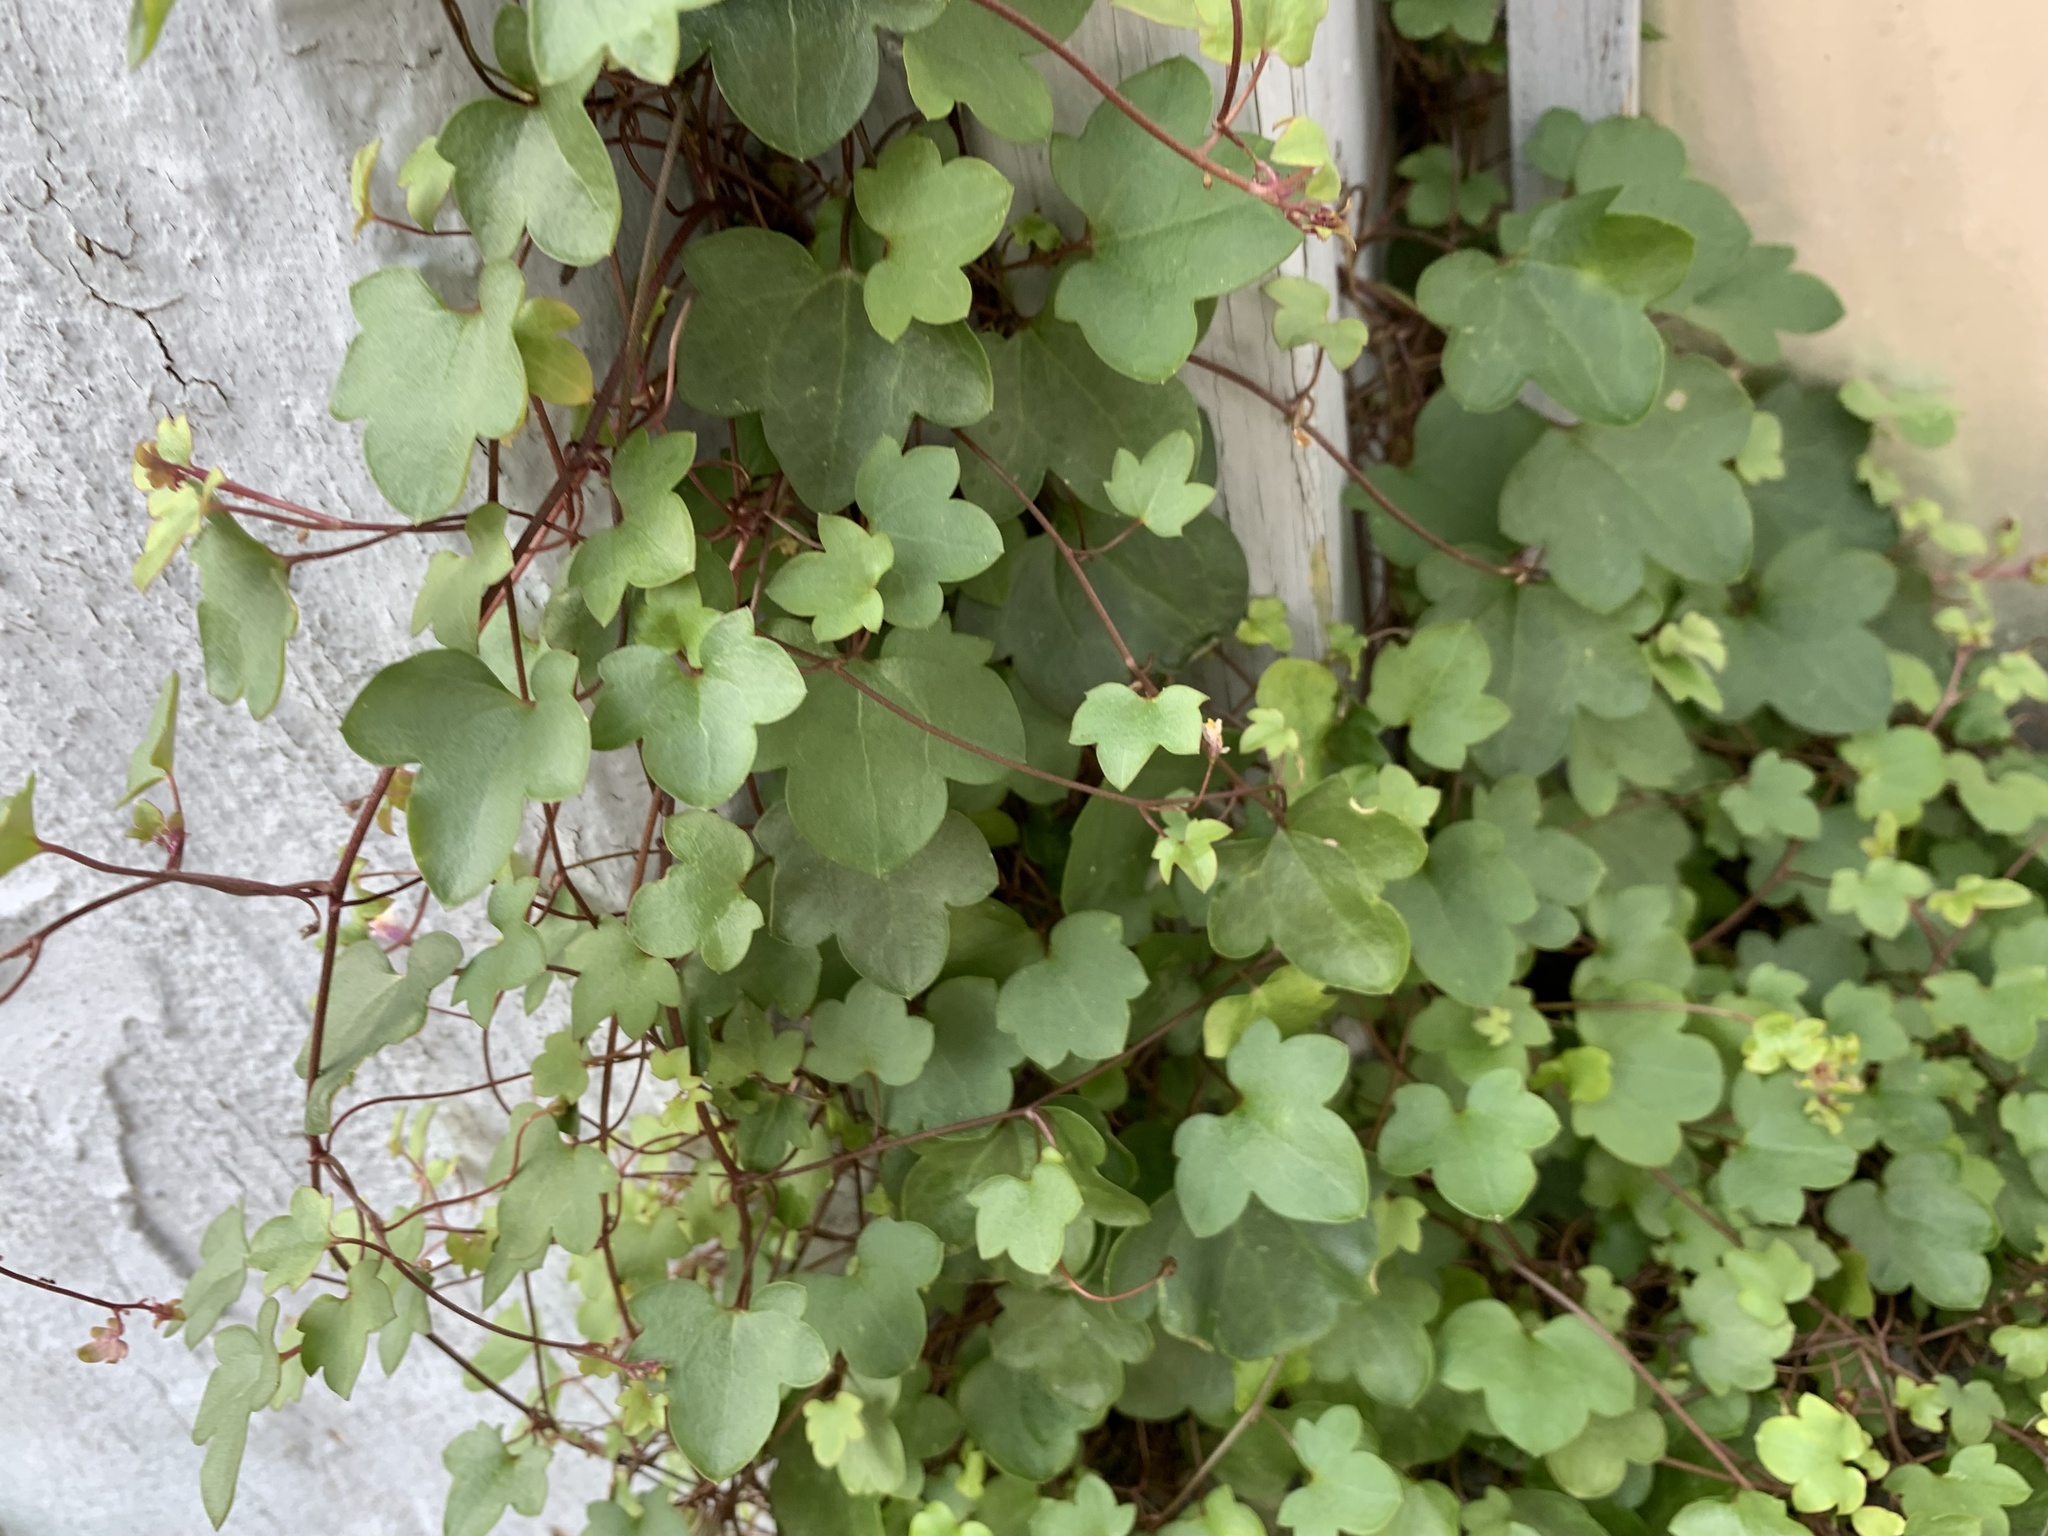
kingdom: Plantae
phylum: Tracheophyta
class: Magnoliopsida
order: Lamiales
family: Plantaginaceae
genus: Cymbalaria
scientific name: Cymbalaria muralis
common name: Ivy-leaved toadflax
